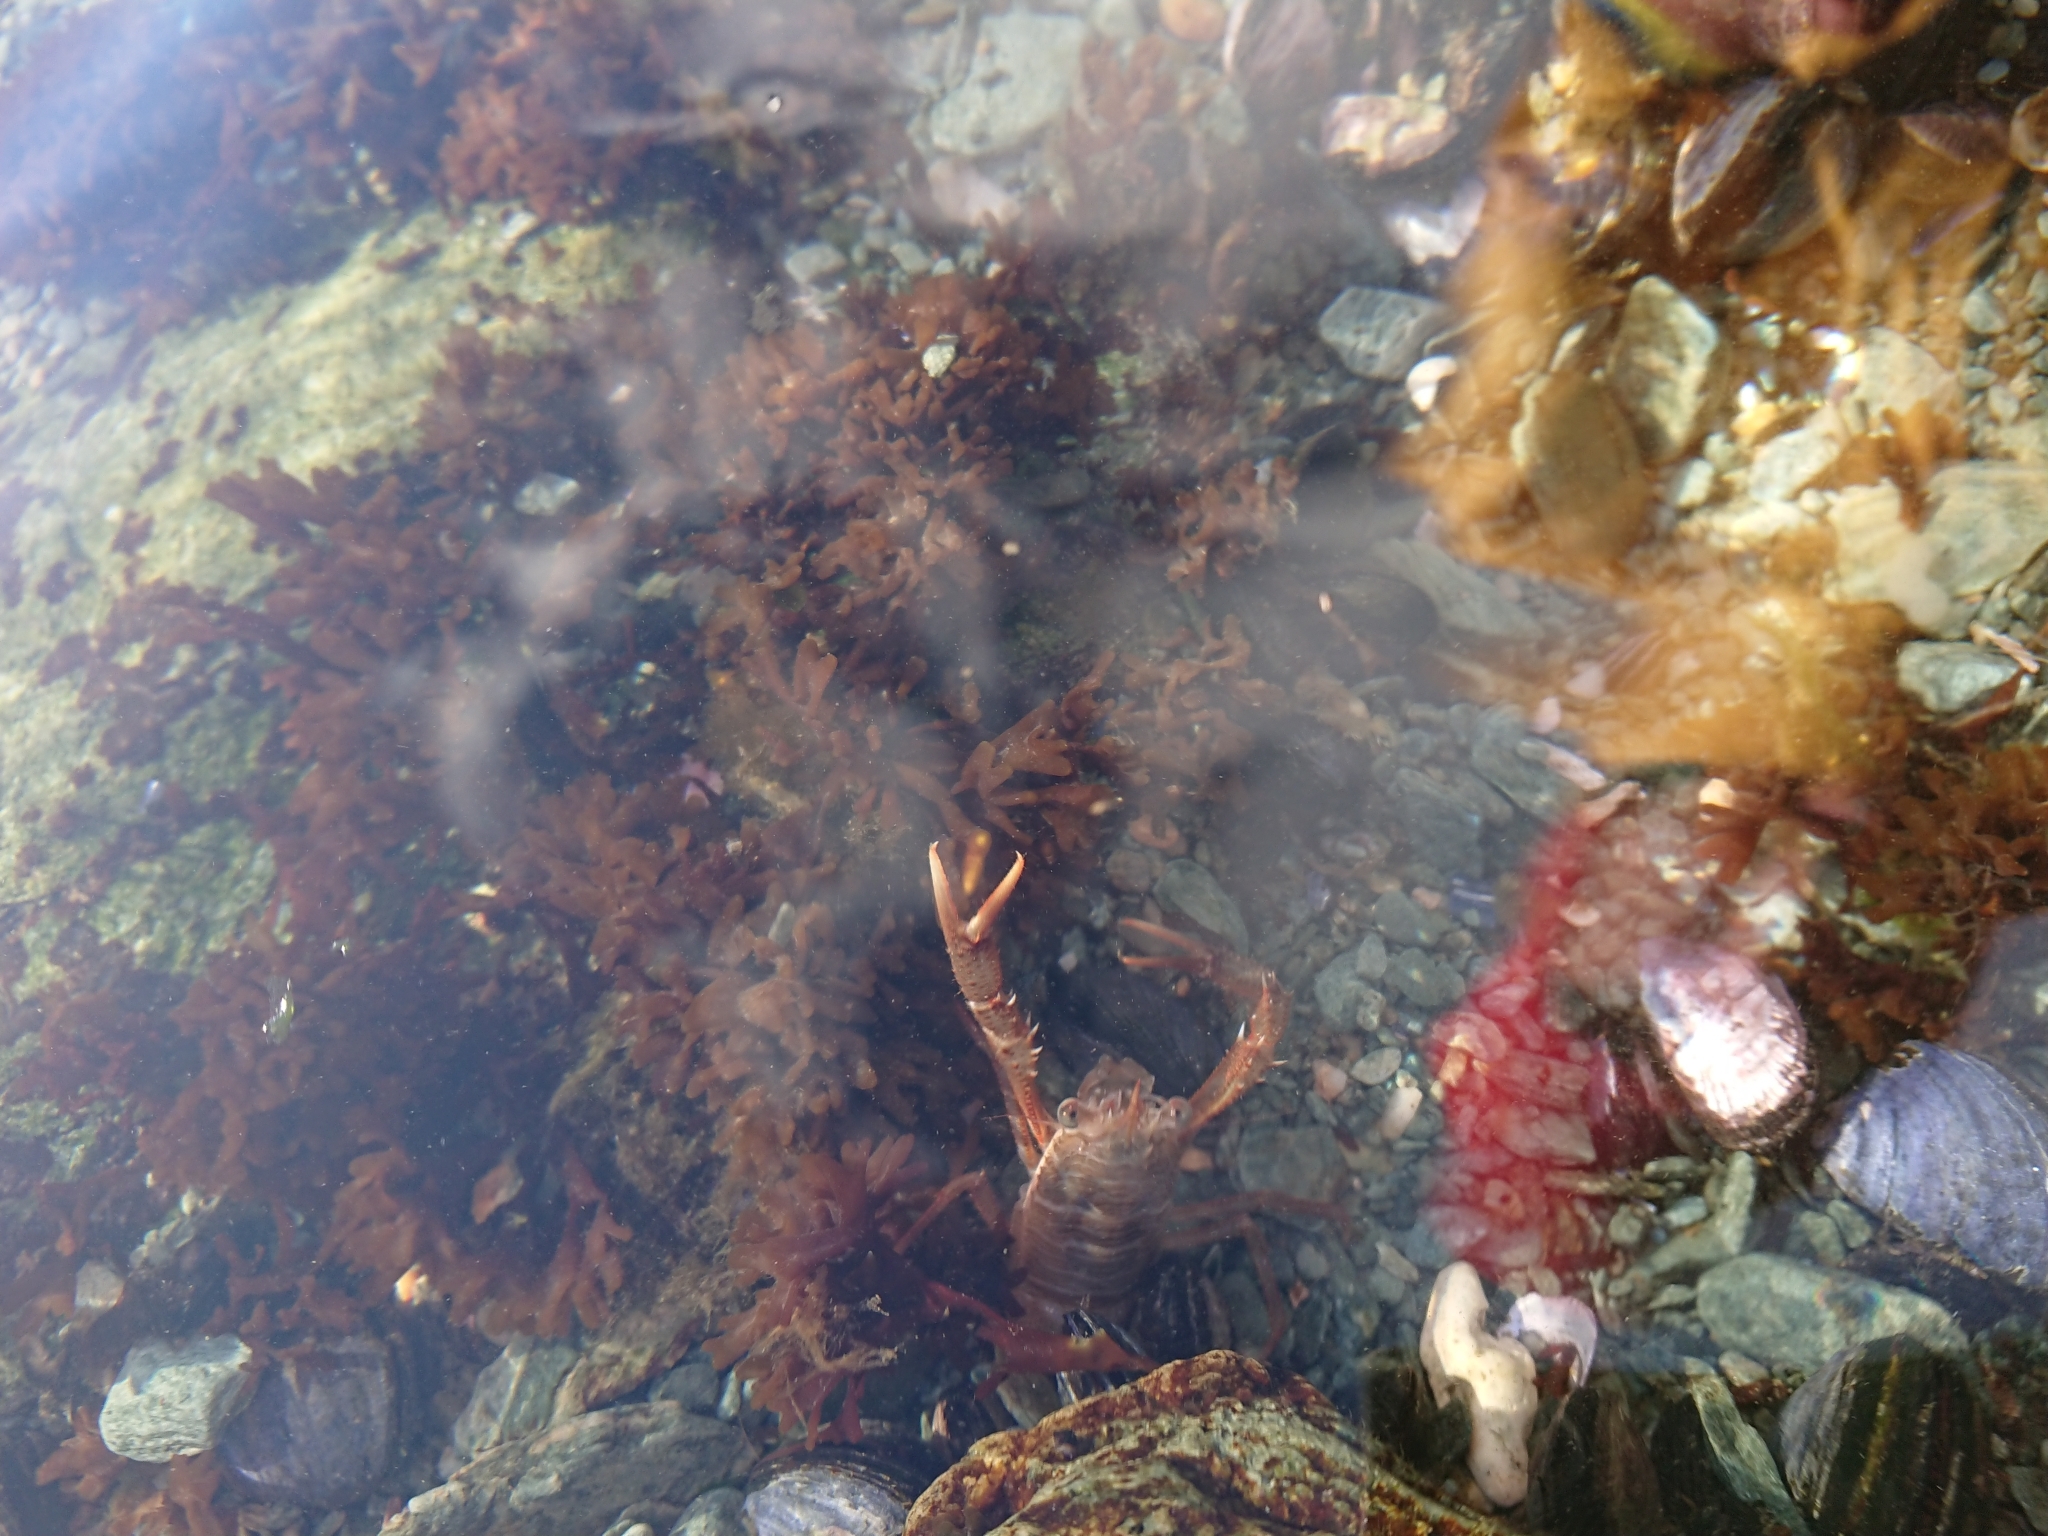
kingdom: Animalia
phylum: Arthropoda
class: Malacostraca
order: Decapoda
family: Munididae
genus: Grimothea
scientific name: Grimothea gregaria
